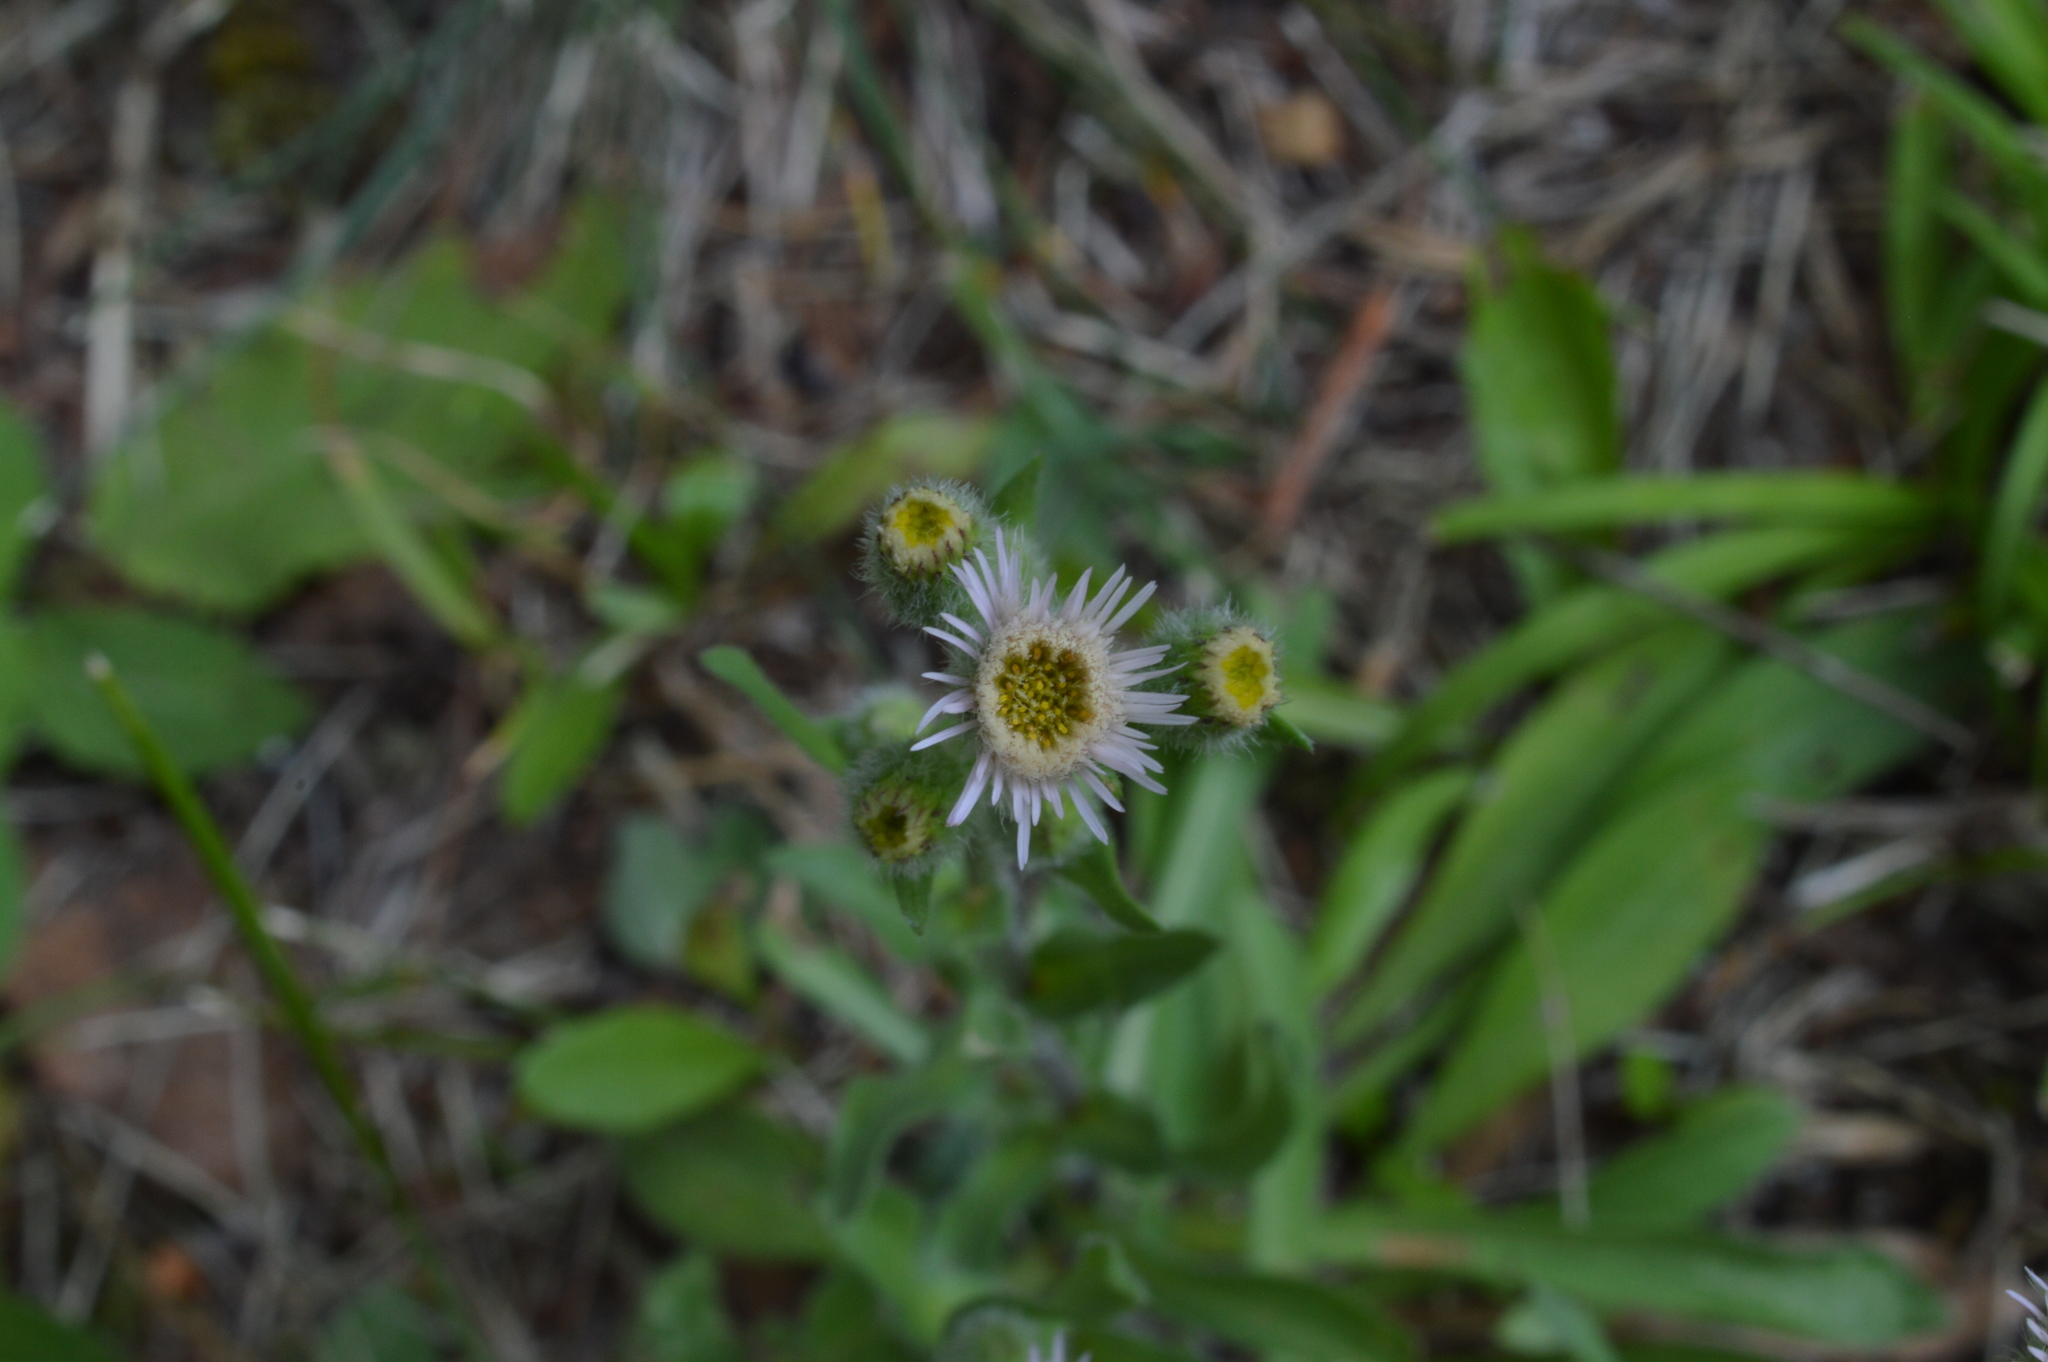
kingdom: Plantae
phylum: Tracheophyta
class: Magnoliopsida
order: Asterales
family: Asteraceae
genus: Erigeron
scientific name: Erigeron acris
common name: Blue fleabane
